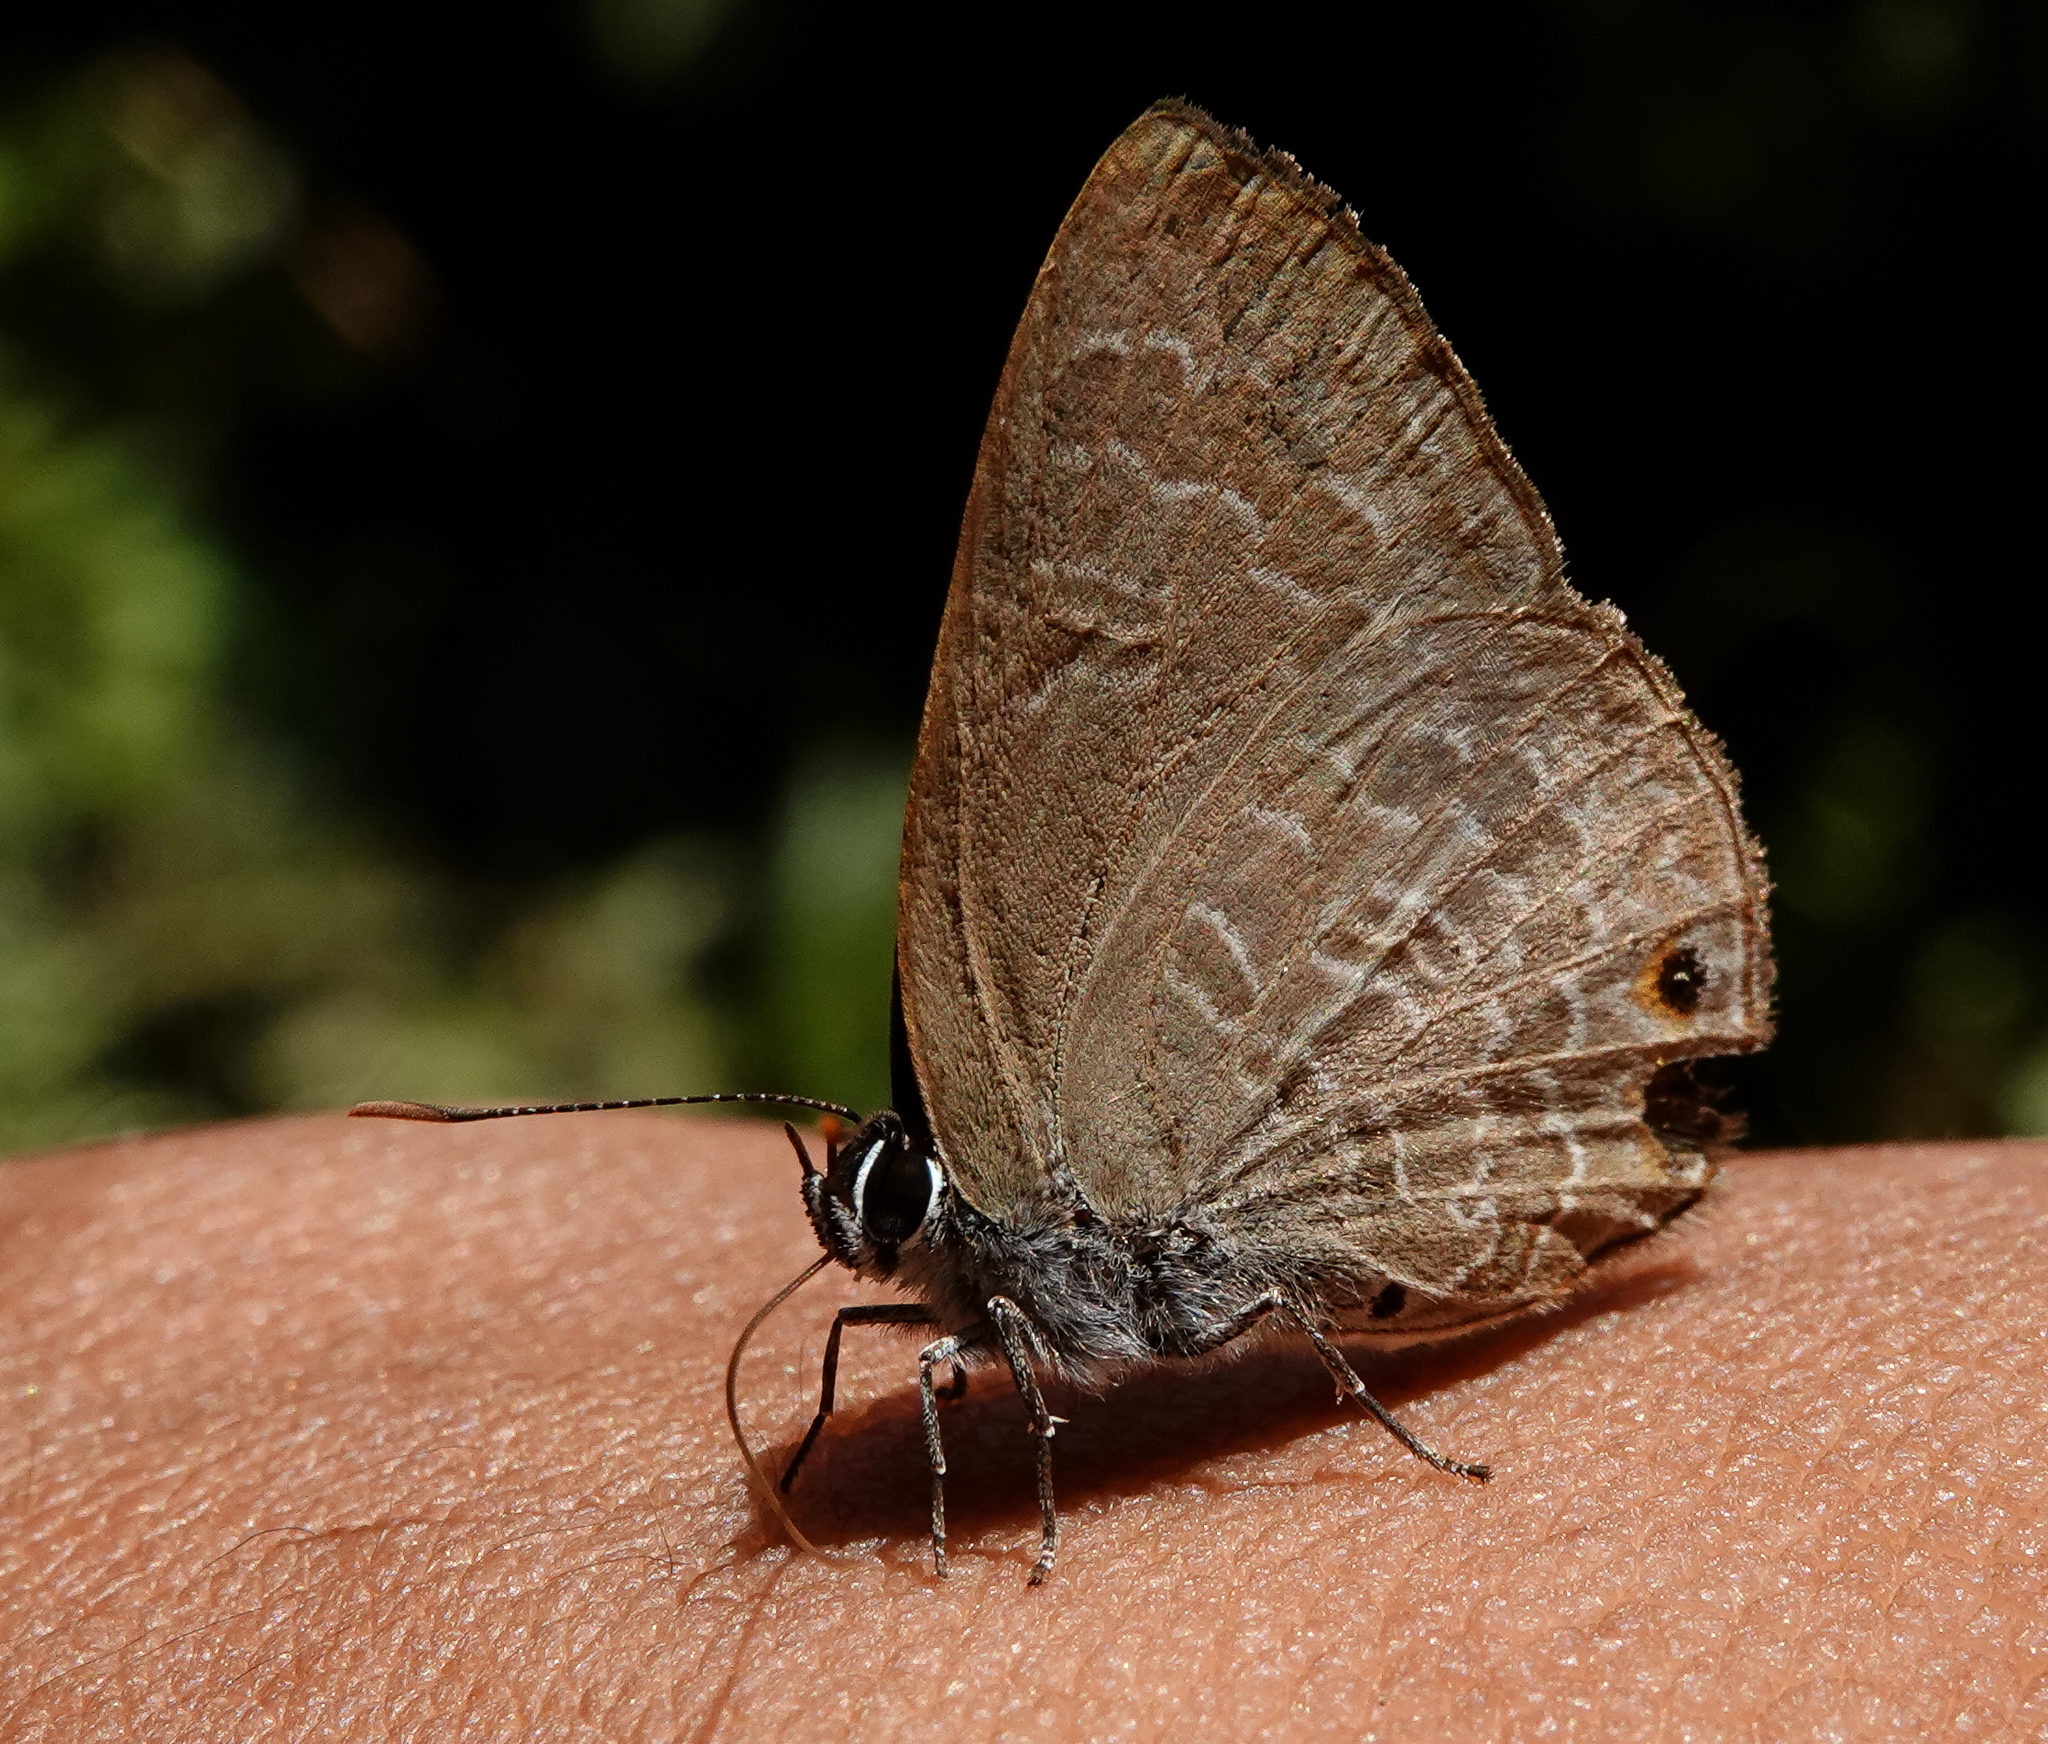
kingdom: Animalia
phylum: Arthropoda
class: Insecta
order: Lepidoptera
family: Lycaenidae
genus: Anthene
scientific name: Anthene emolus
